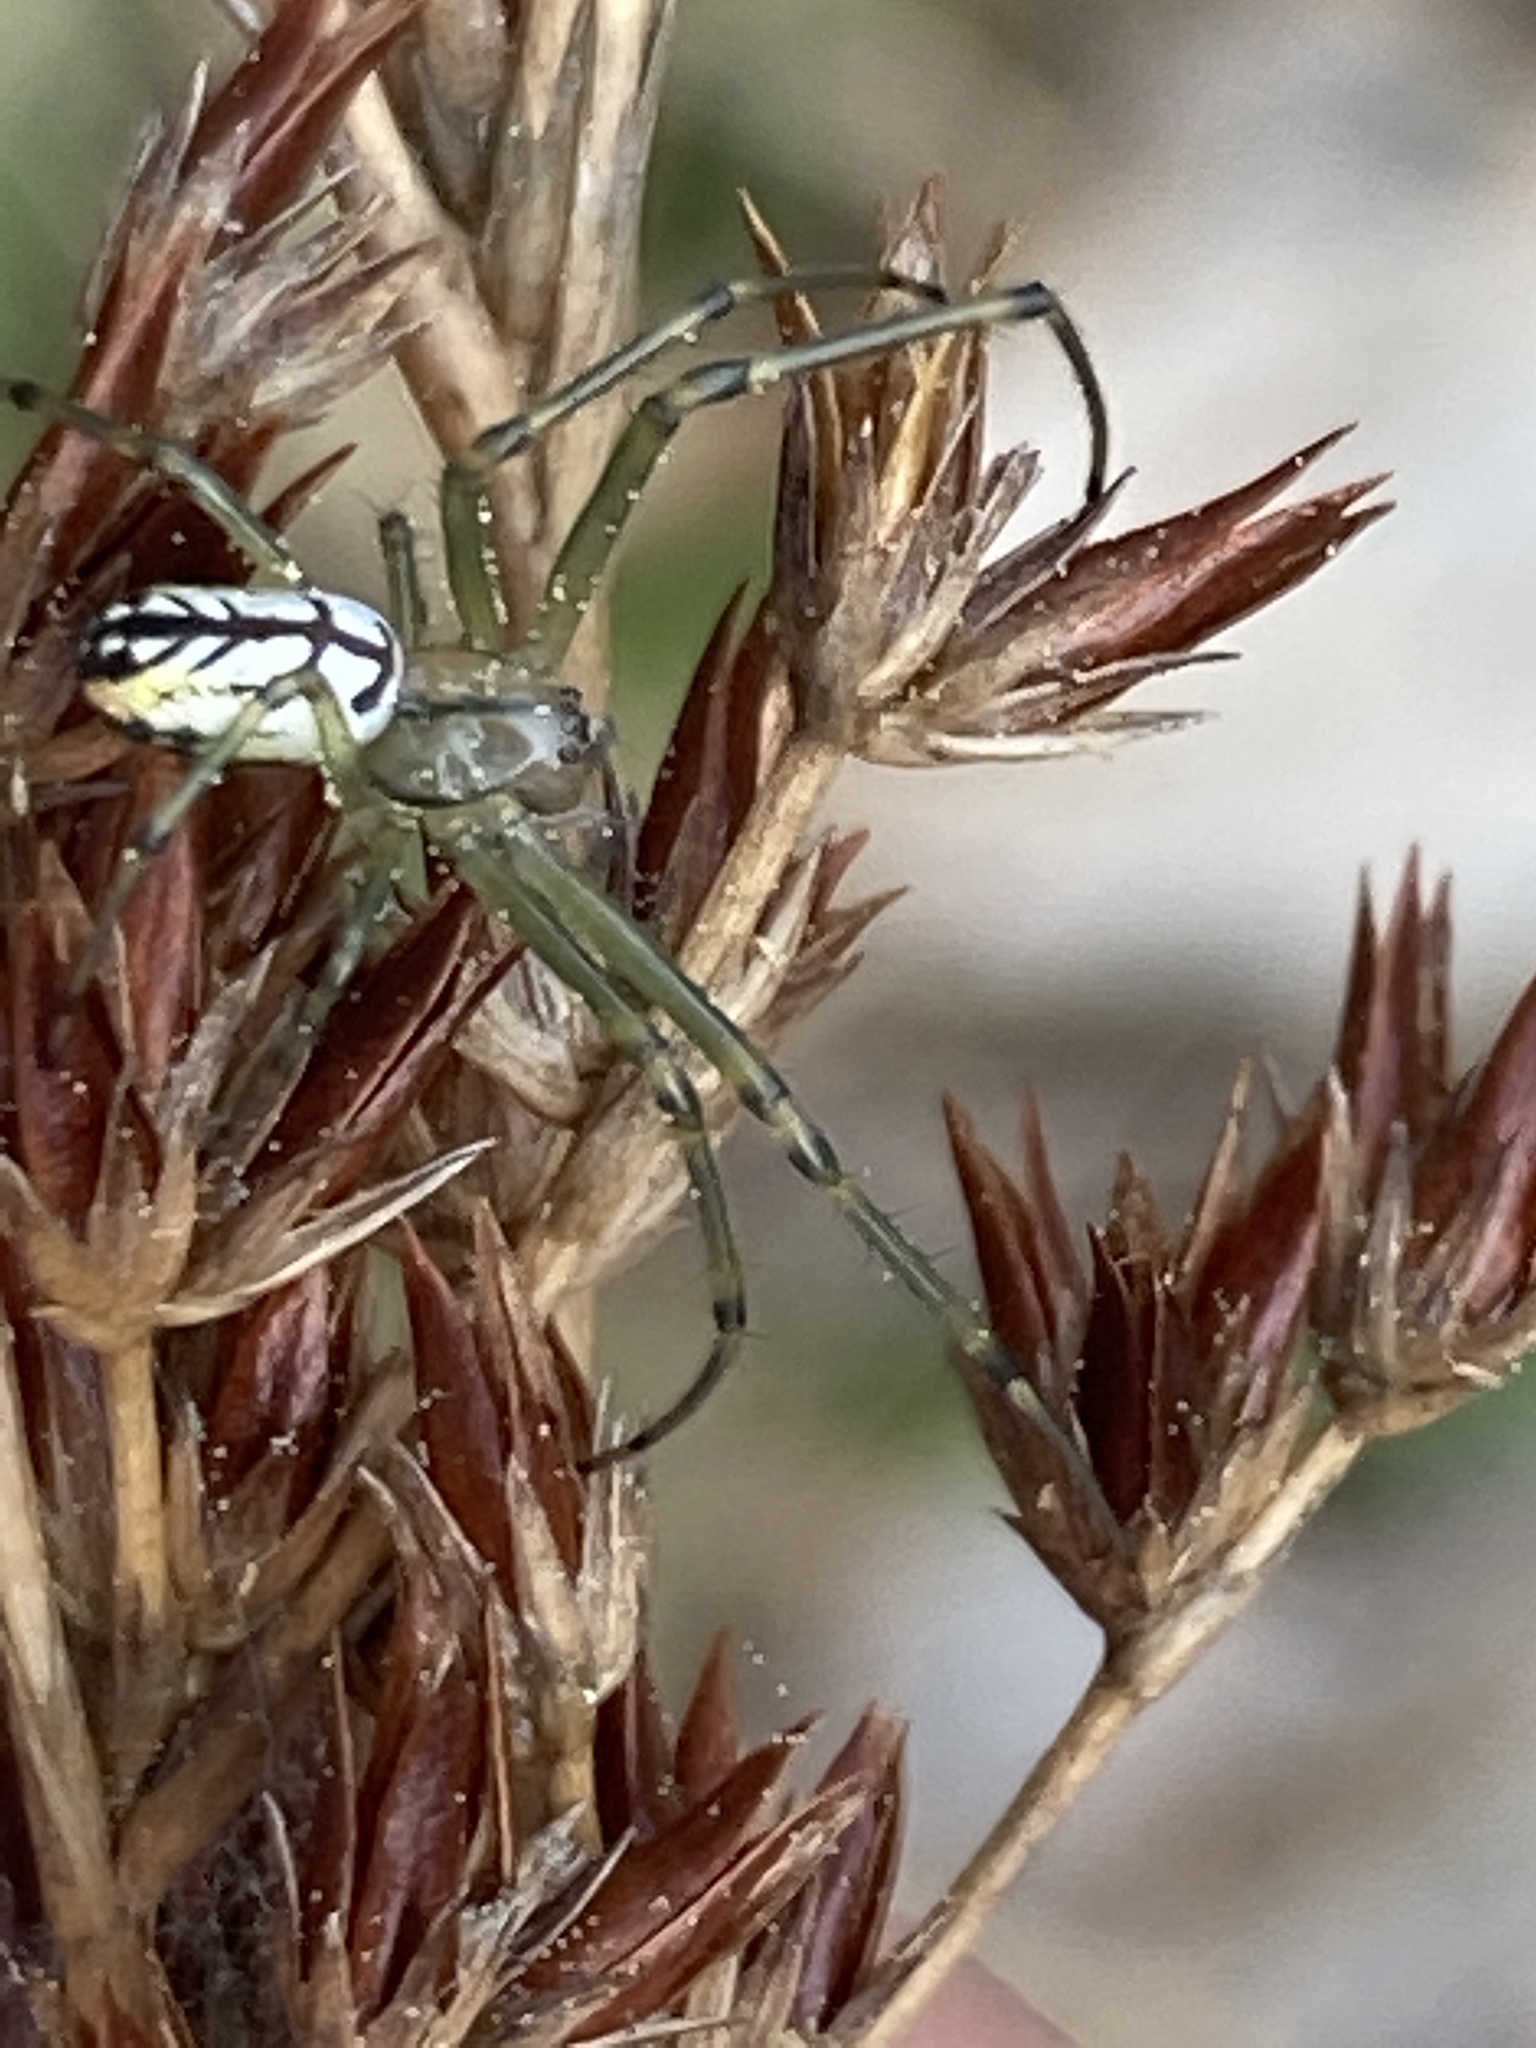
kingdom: Animalia
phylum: Arthropoda
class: Arachnida
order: Araneae
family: Tetragnathidae
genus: Leucauge
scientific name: Leucauge venusta
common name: Longjawed orb weavers
